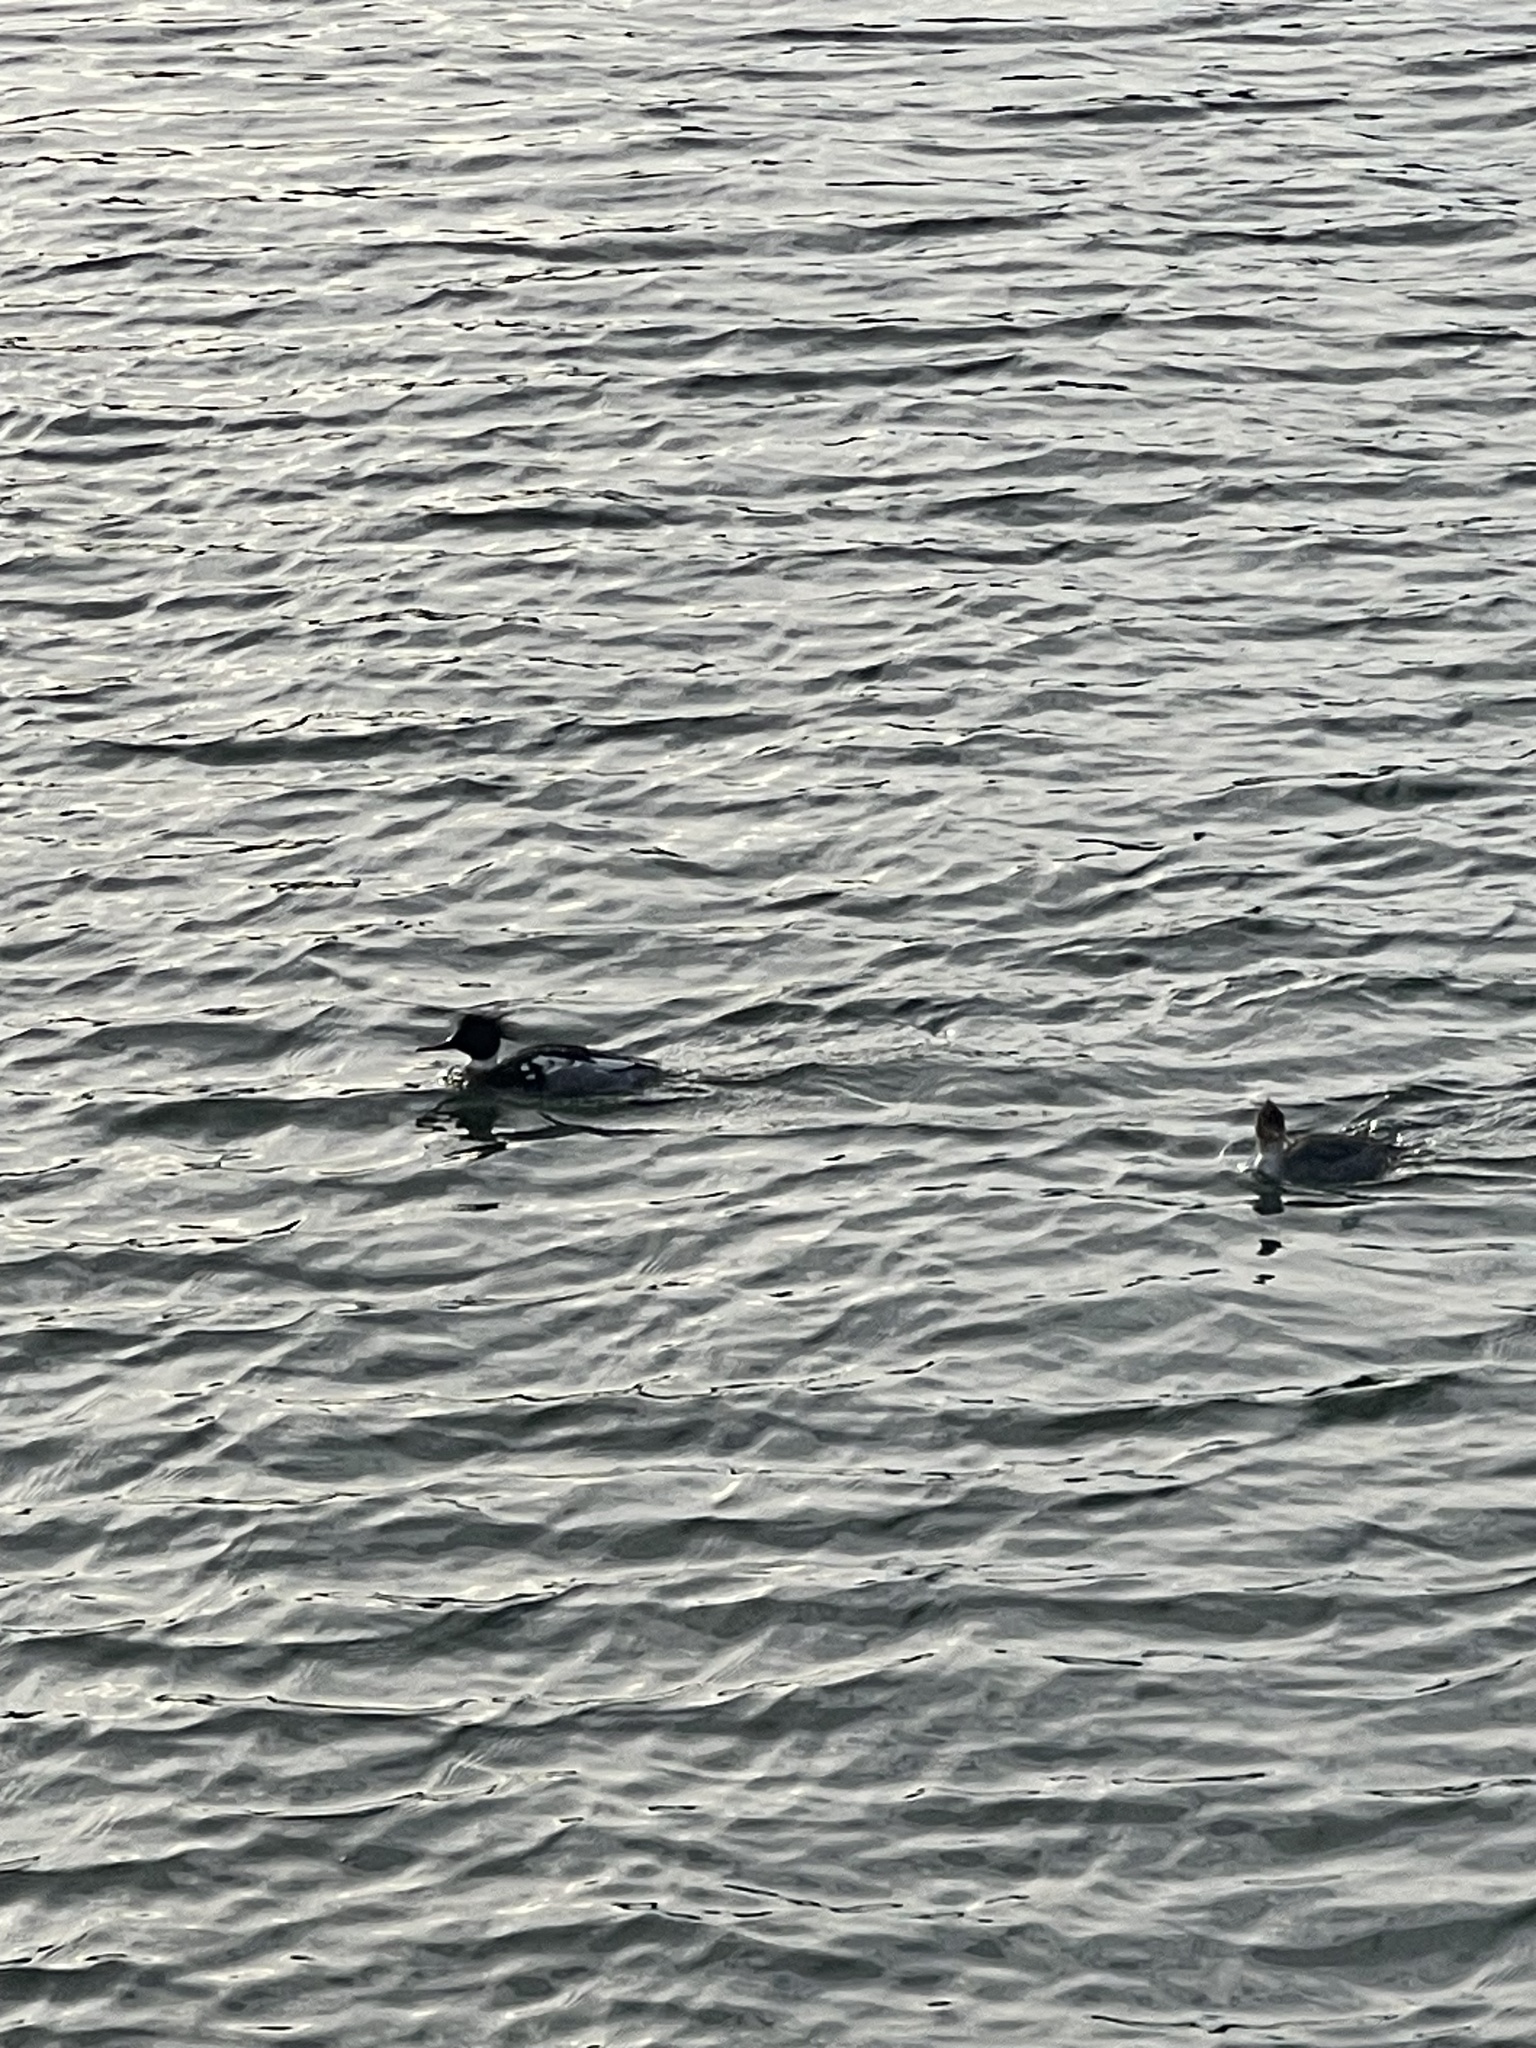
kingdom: Animalia
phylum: Chordata
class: Aves
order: Anseriformes
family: Anatidae
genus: Mergus
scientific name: Mergus serrator
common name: Red-breasted merganser
